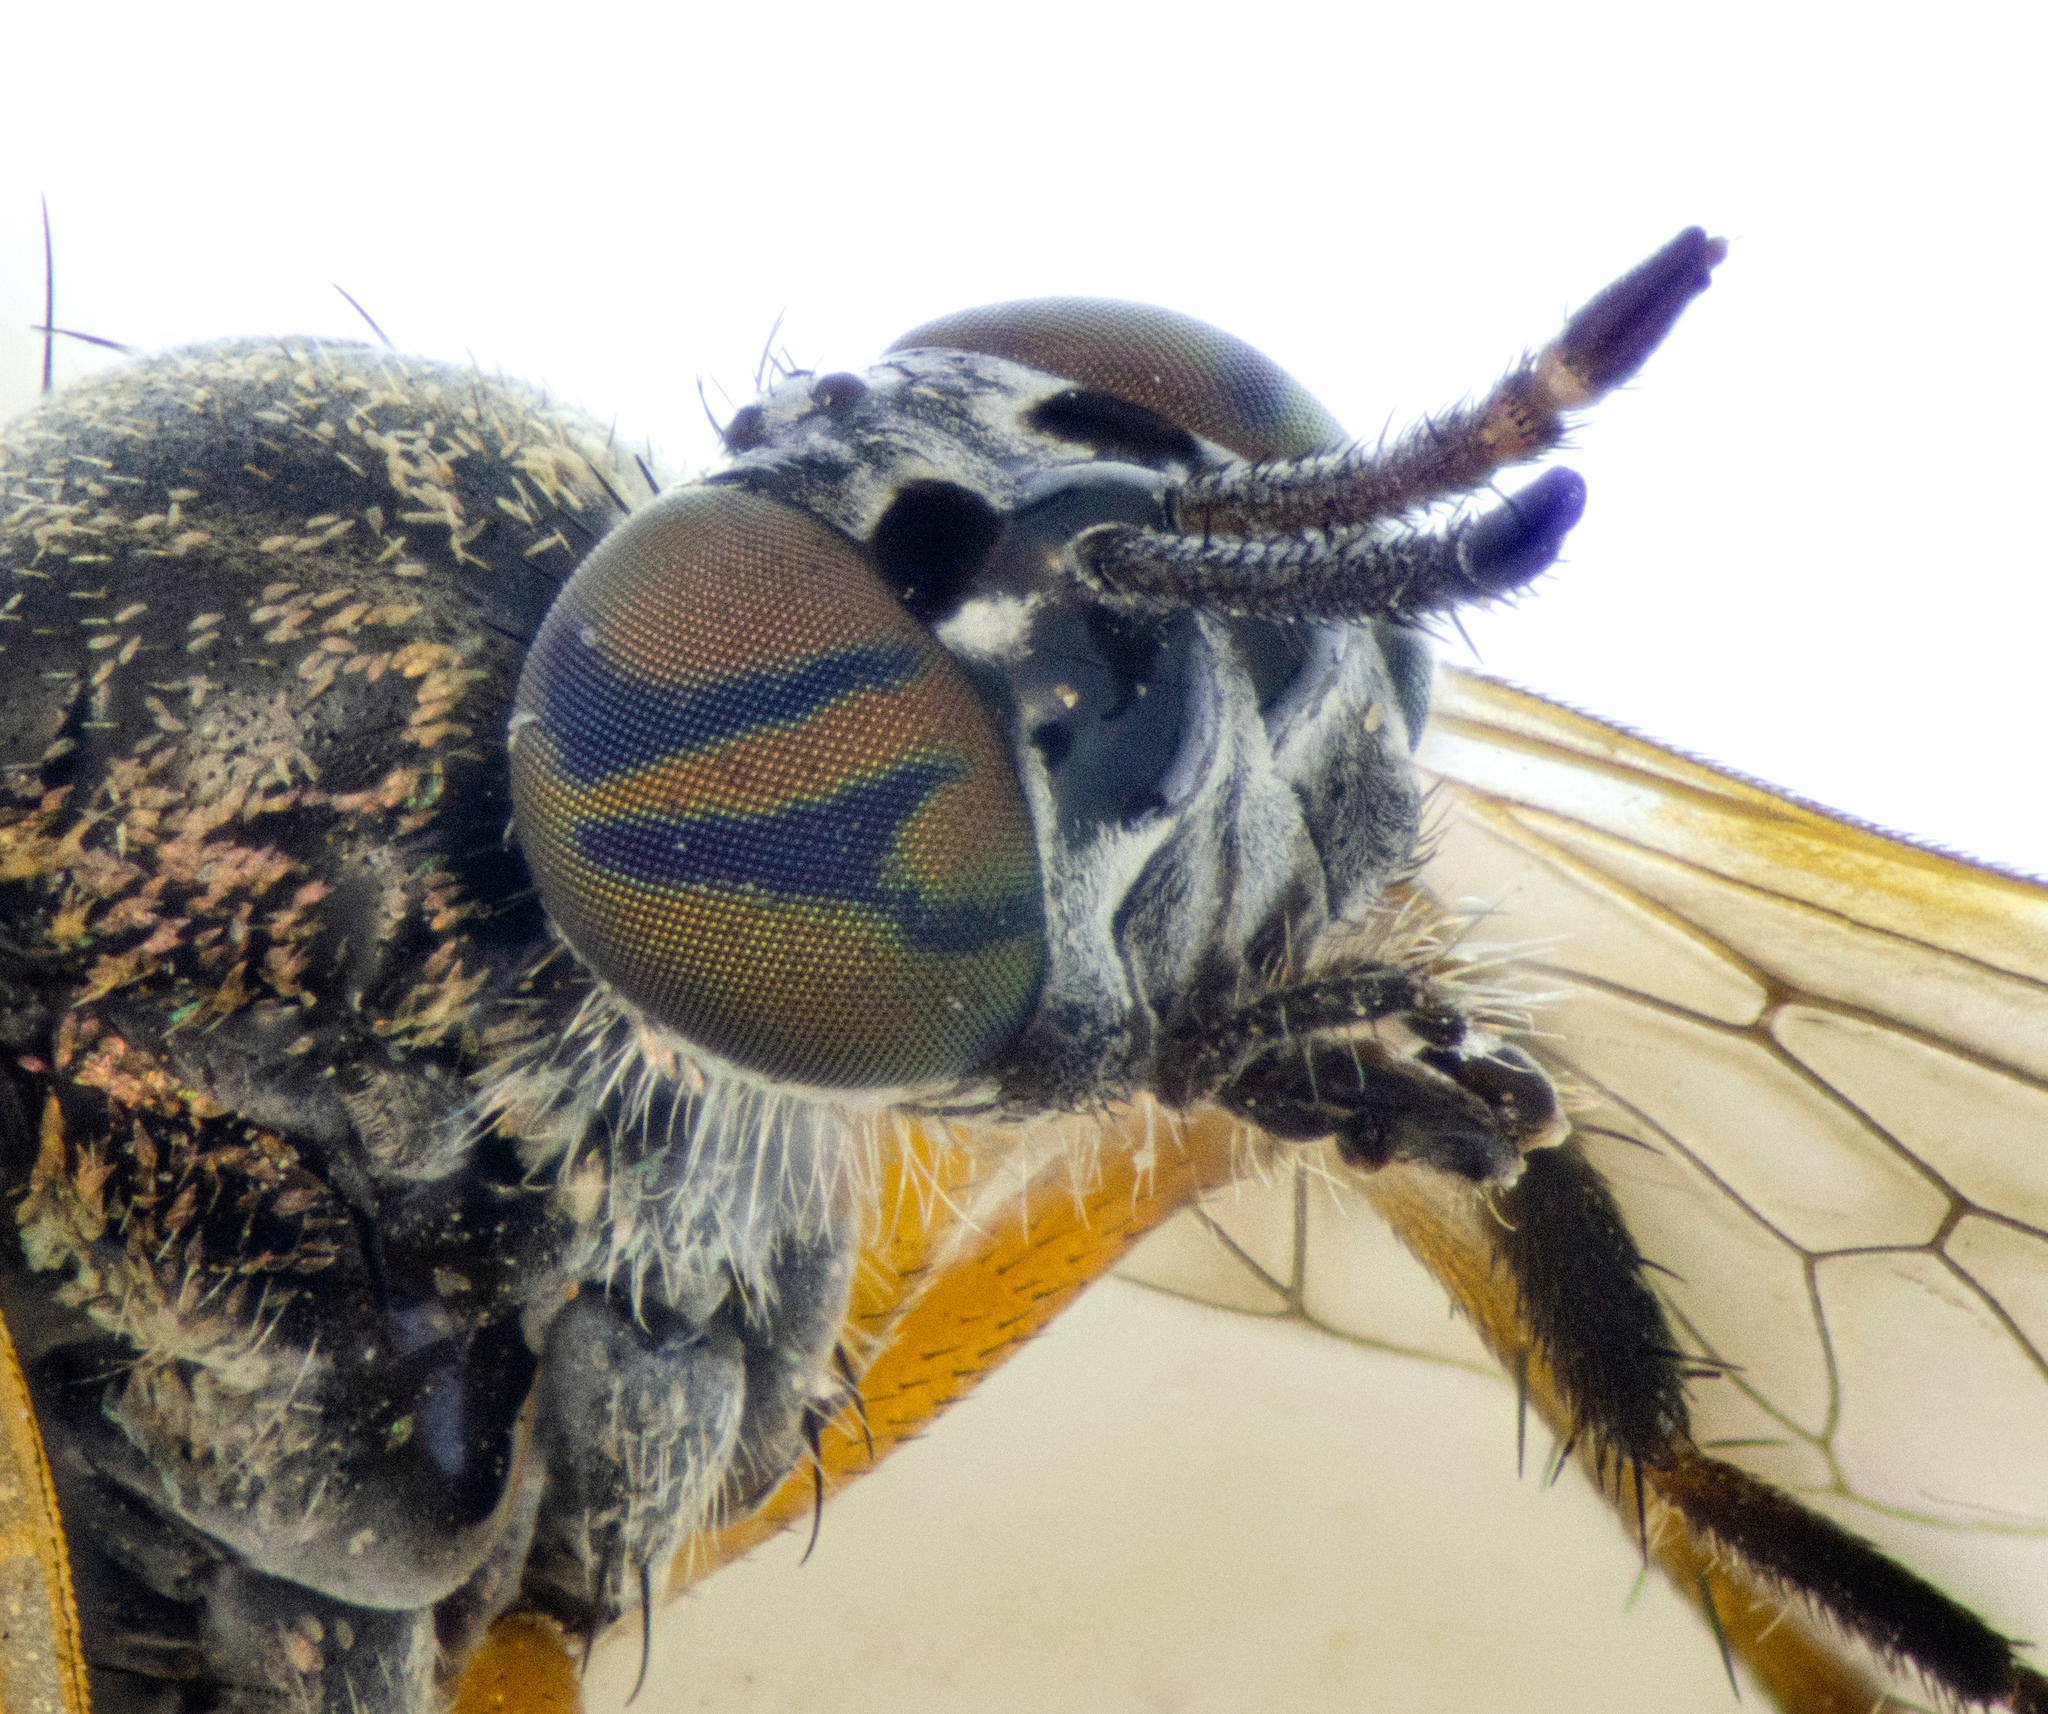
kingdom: Animalia
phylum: Arthropoda
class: Insecta
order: Diptera
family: Therevidae
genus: Chromolepida
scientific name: Chromolepida bella
